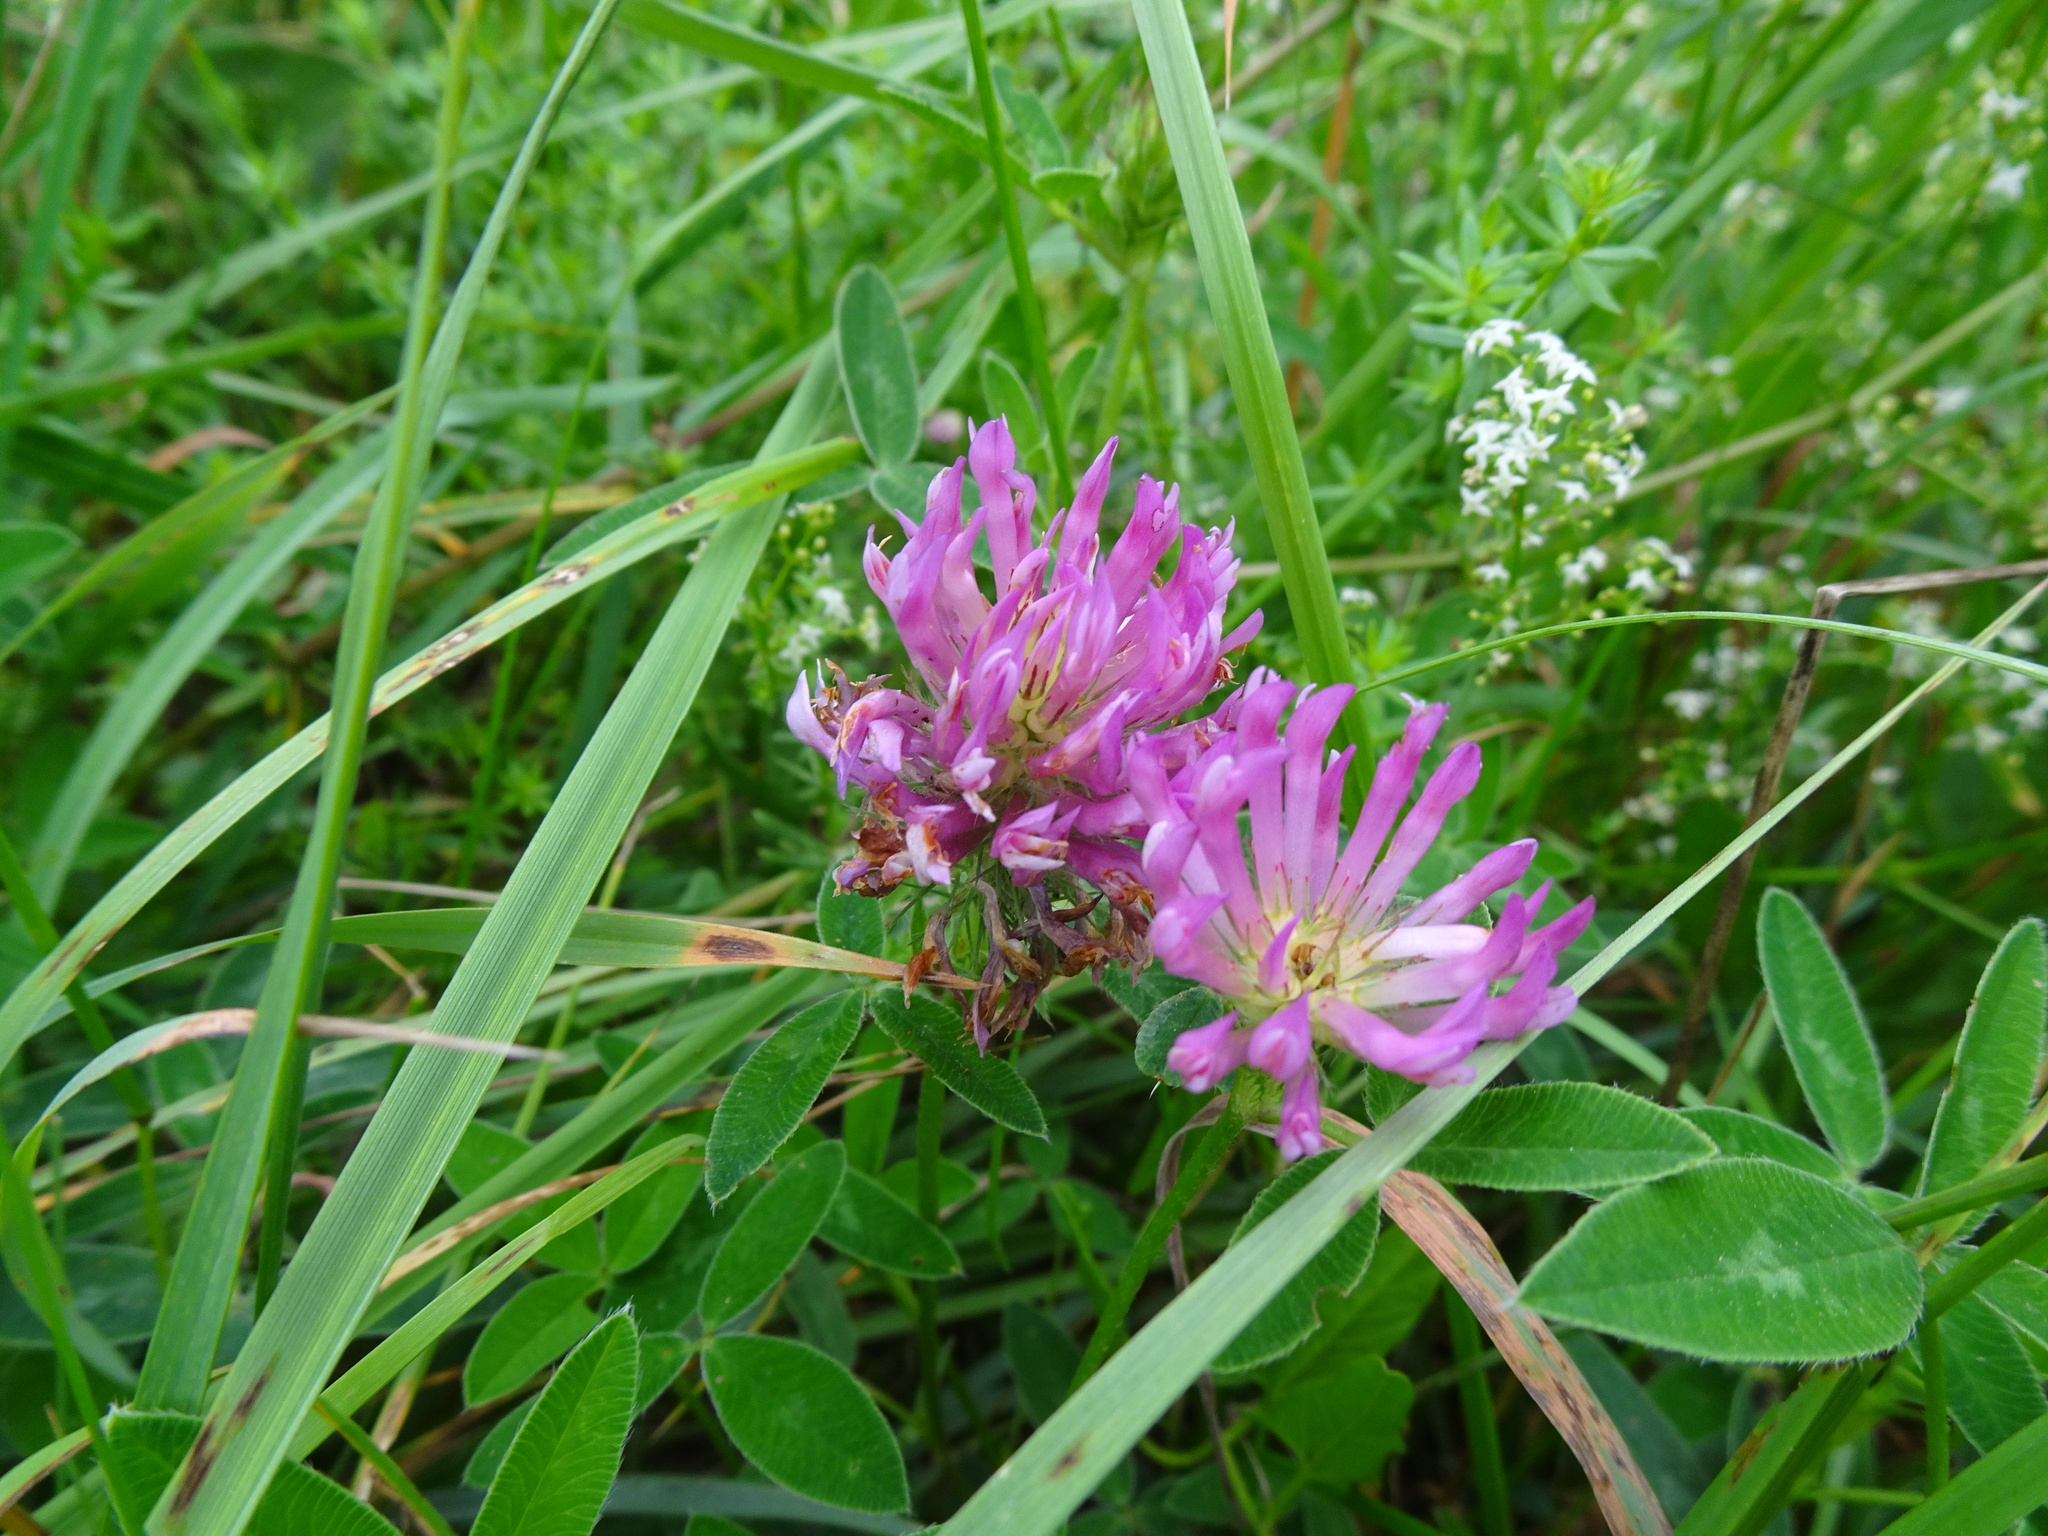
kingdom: Plantae
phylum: Tracheophyta
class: Magnoliopsida
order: Fabales
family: Fabaceae
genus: Trifolium
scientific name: Trifolium pratense
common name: Red clover
